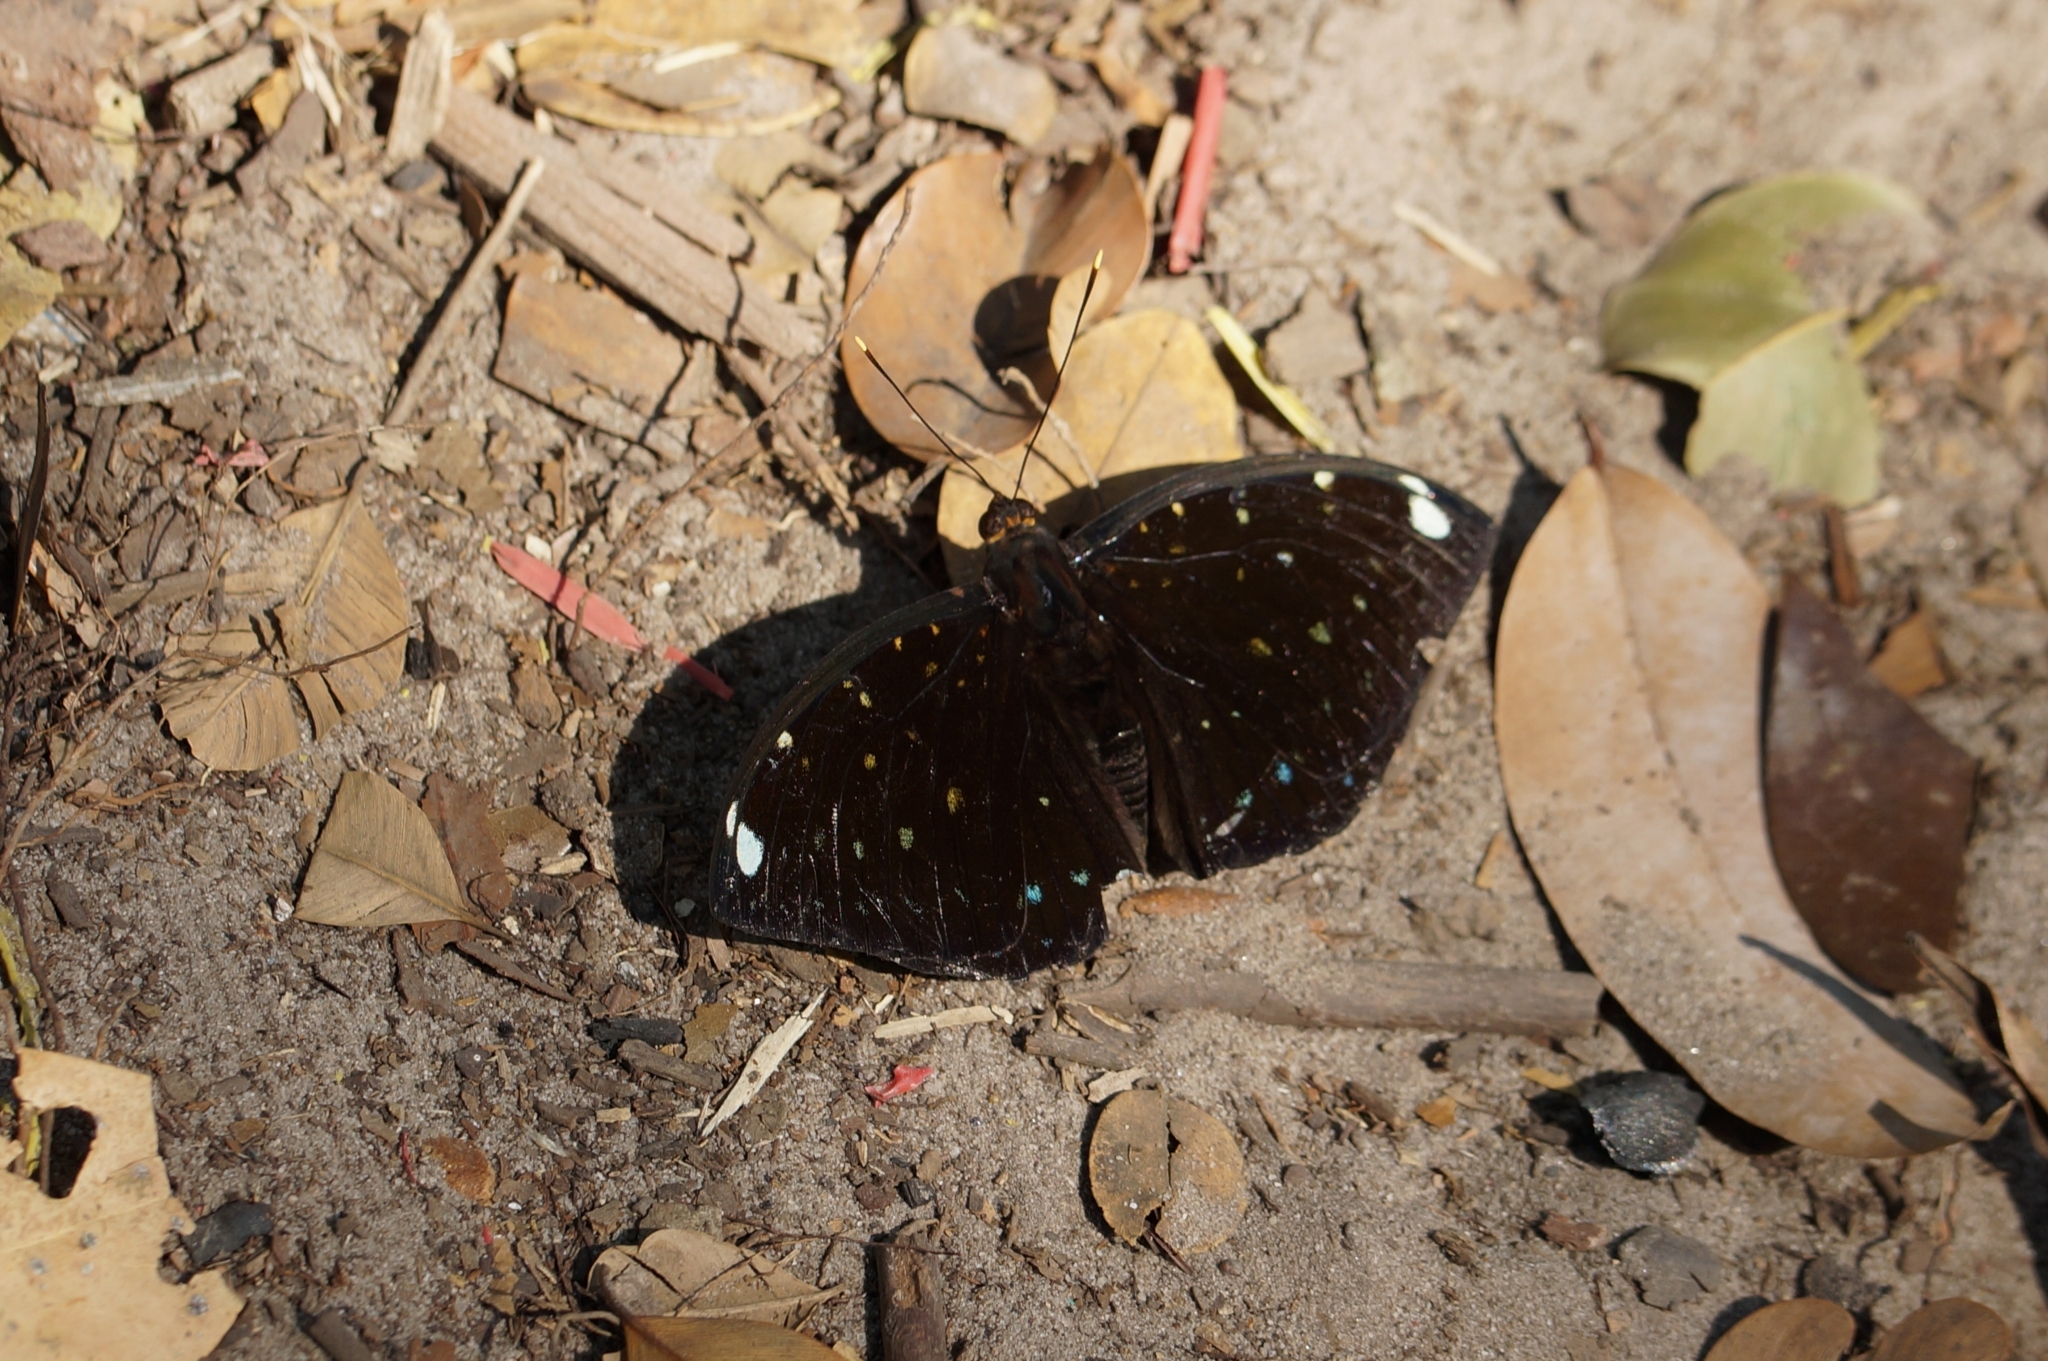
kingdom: Animalia
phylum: Arthropoda
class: Insecta
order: Lepidoptera
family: Nymphalidae
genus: Lexias
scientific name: Lexias
